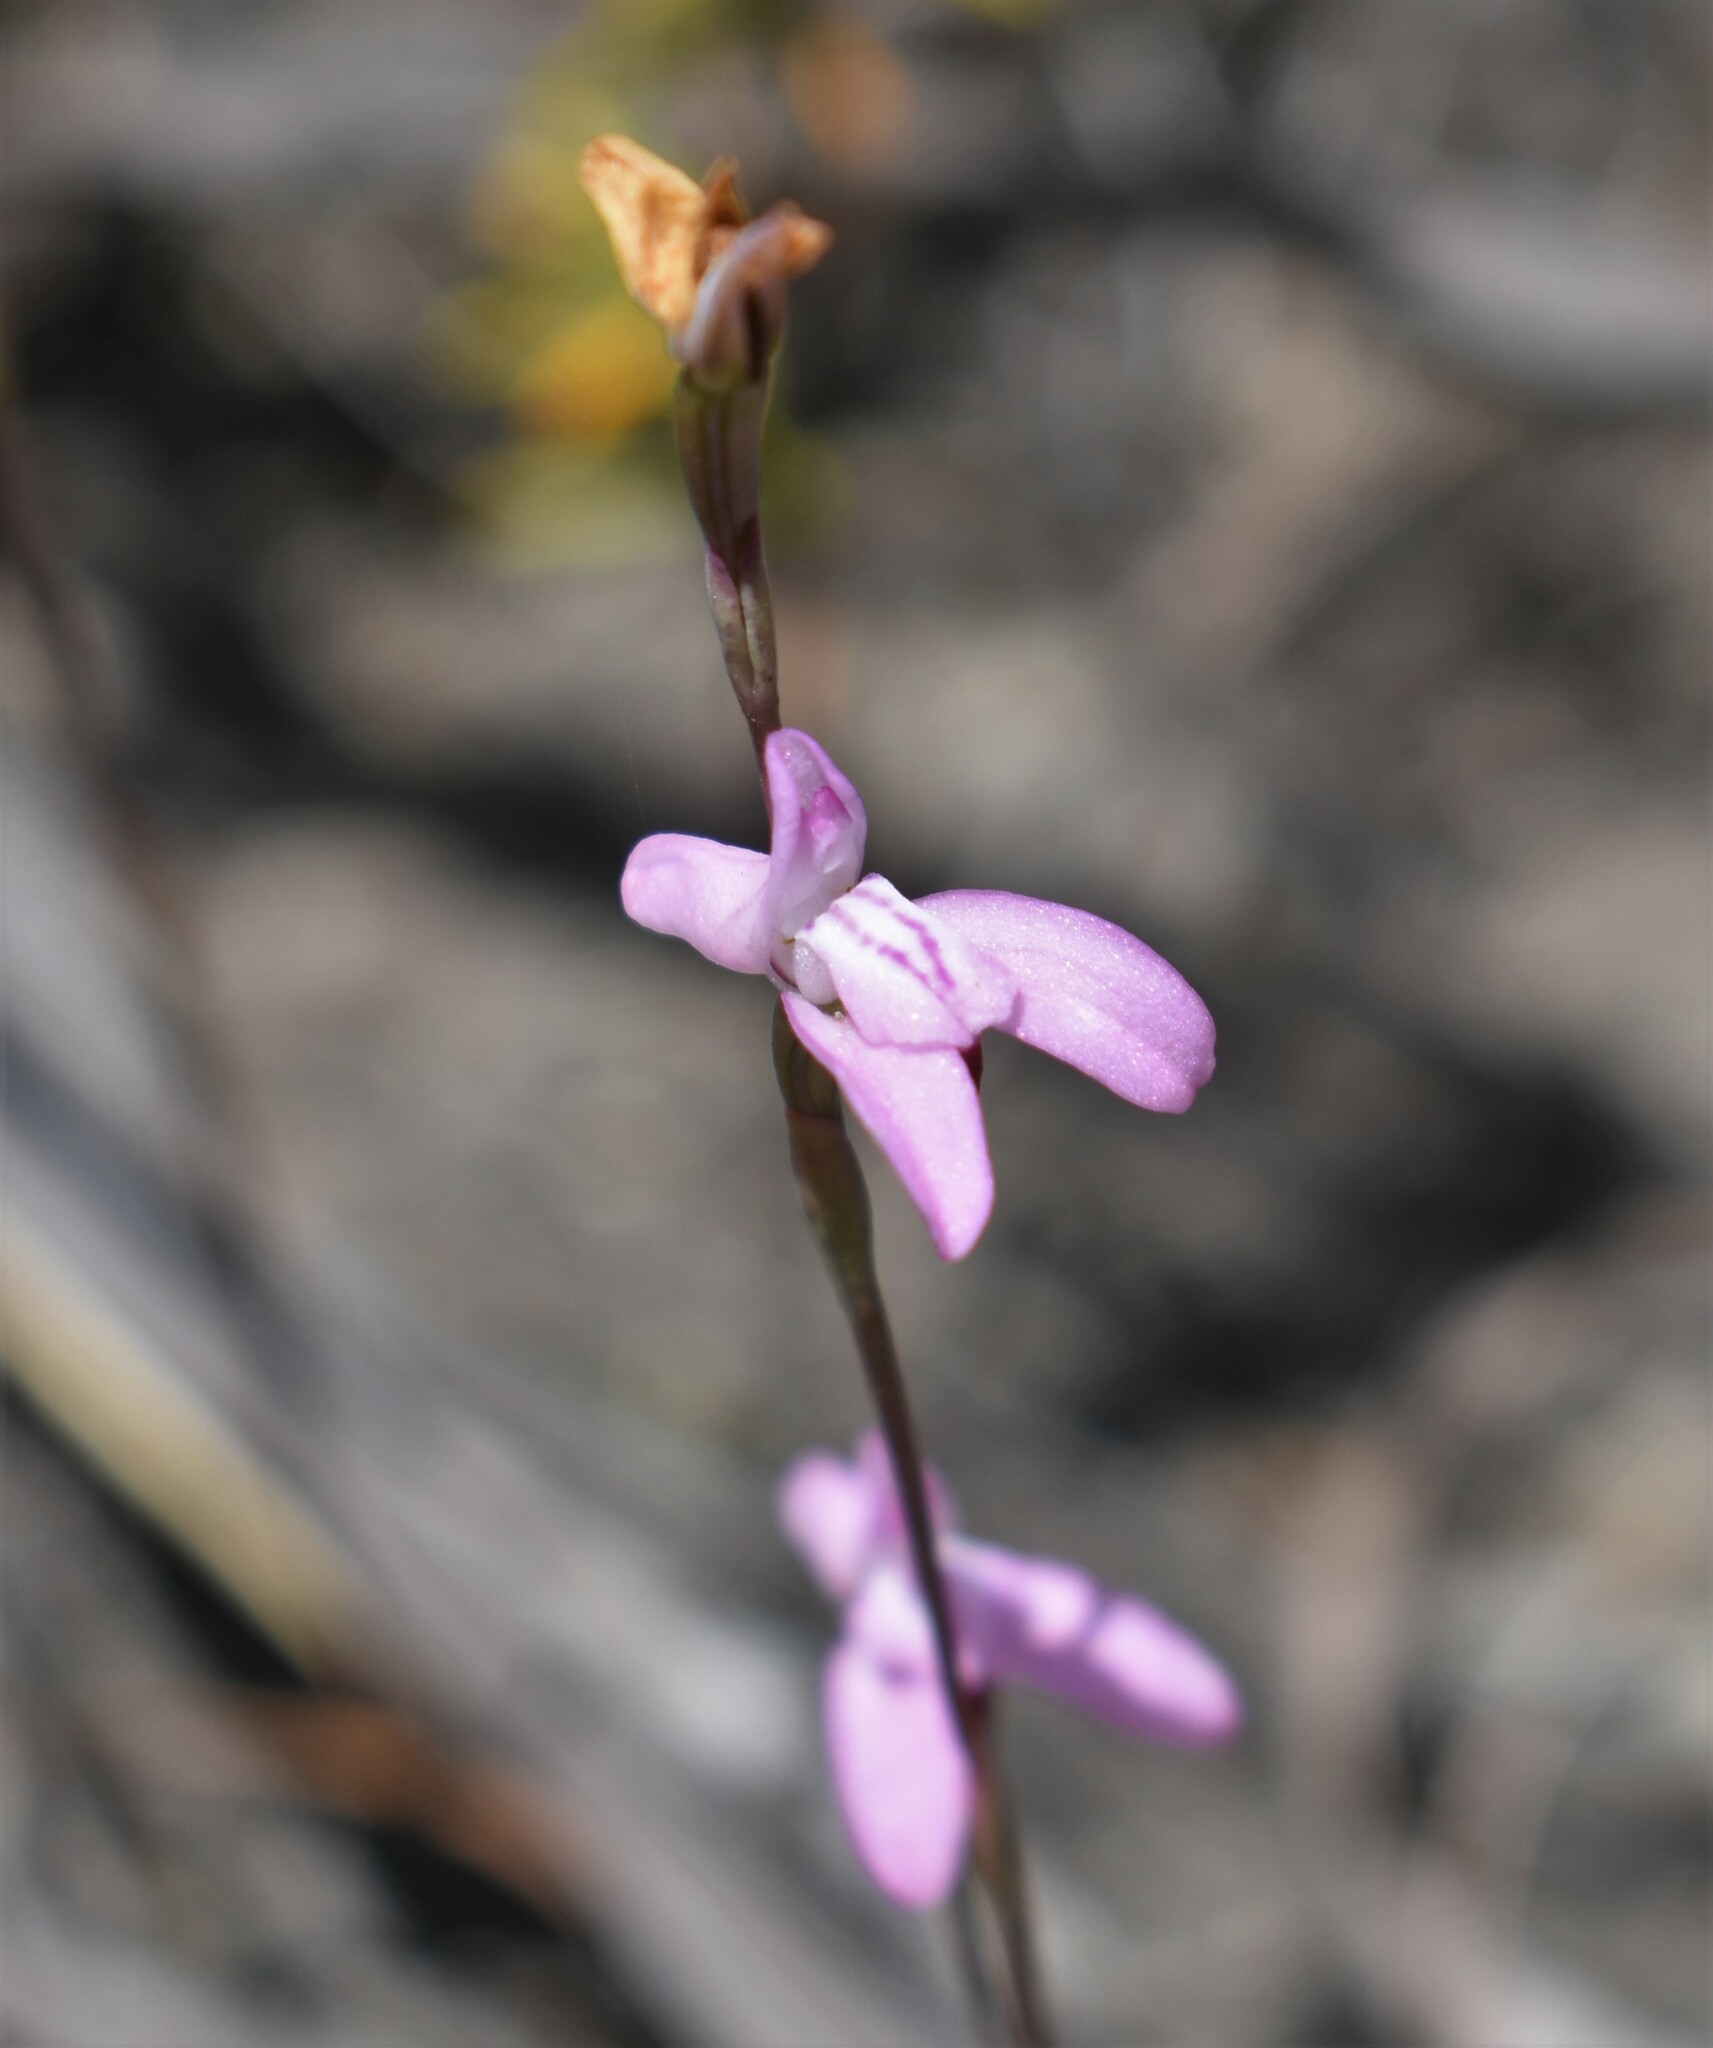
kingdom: Plantae
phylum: Tracheophyta
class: Liliopsida
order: Asparagales
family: Orchidaceae
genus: Disa
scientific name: Disa inflexa
